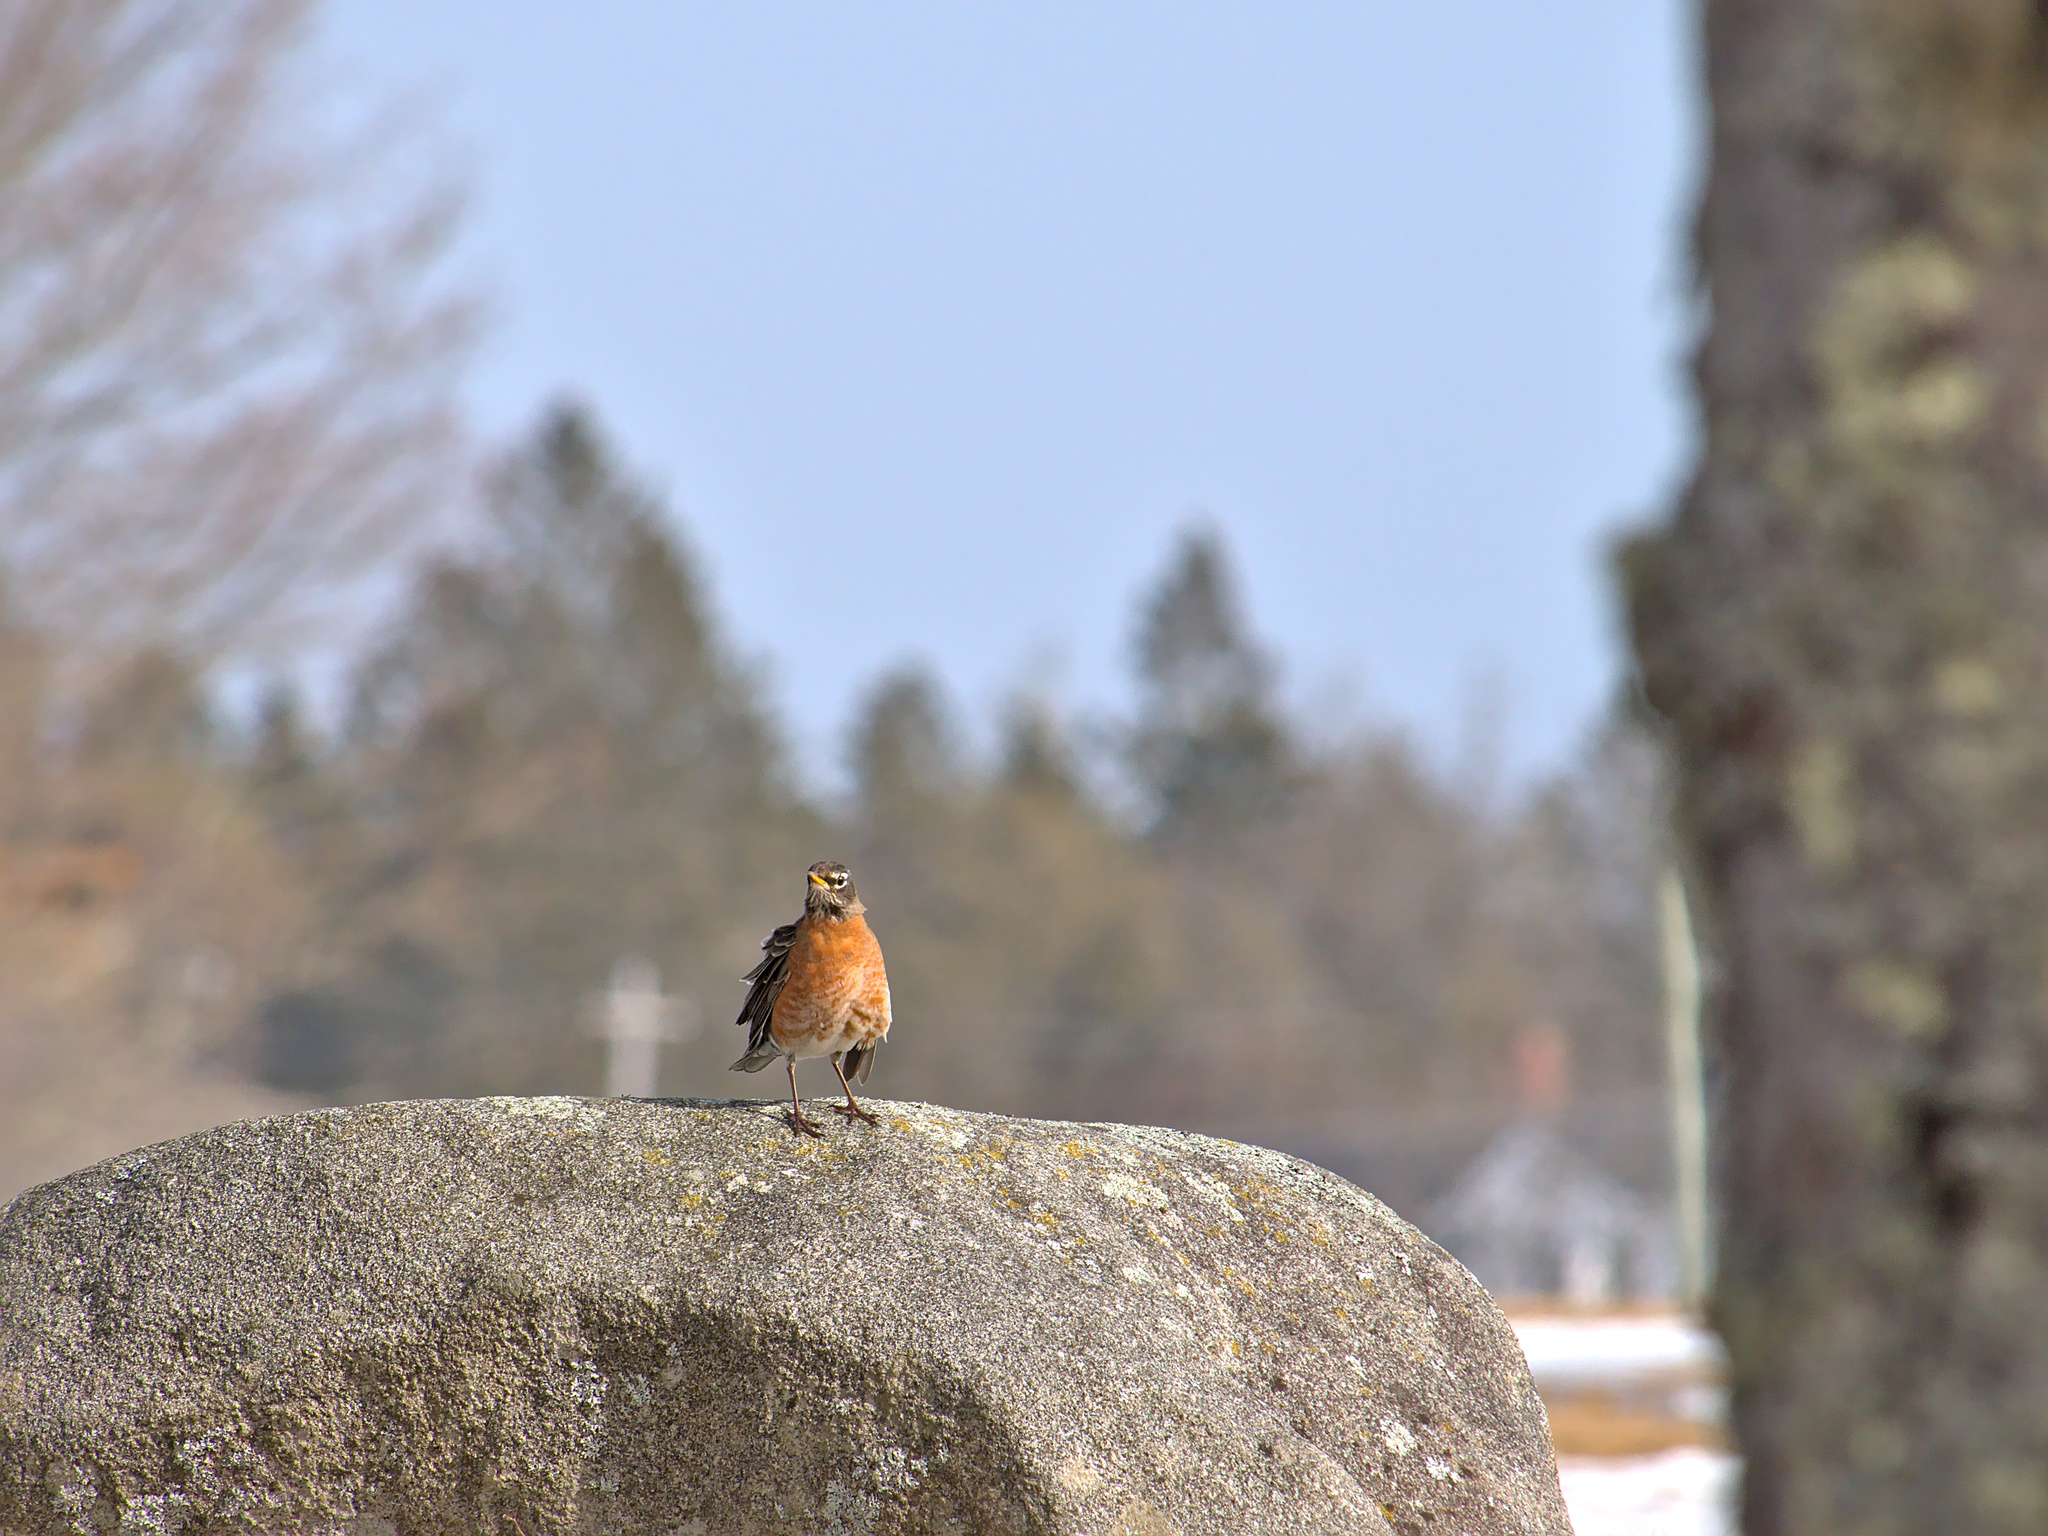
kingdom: Animalia
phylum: Chordata
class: Aves
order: Passeriformes
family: Turdidae
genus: Turdus
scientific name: Turdus migratorius
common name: American robin
